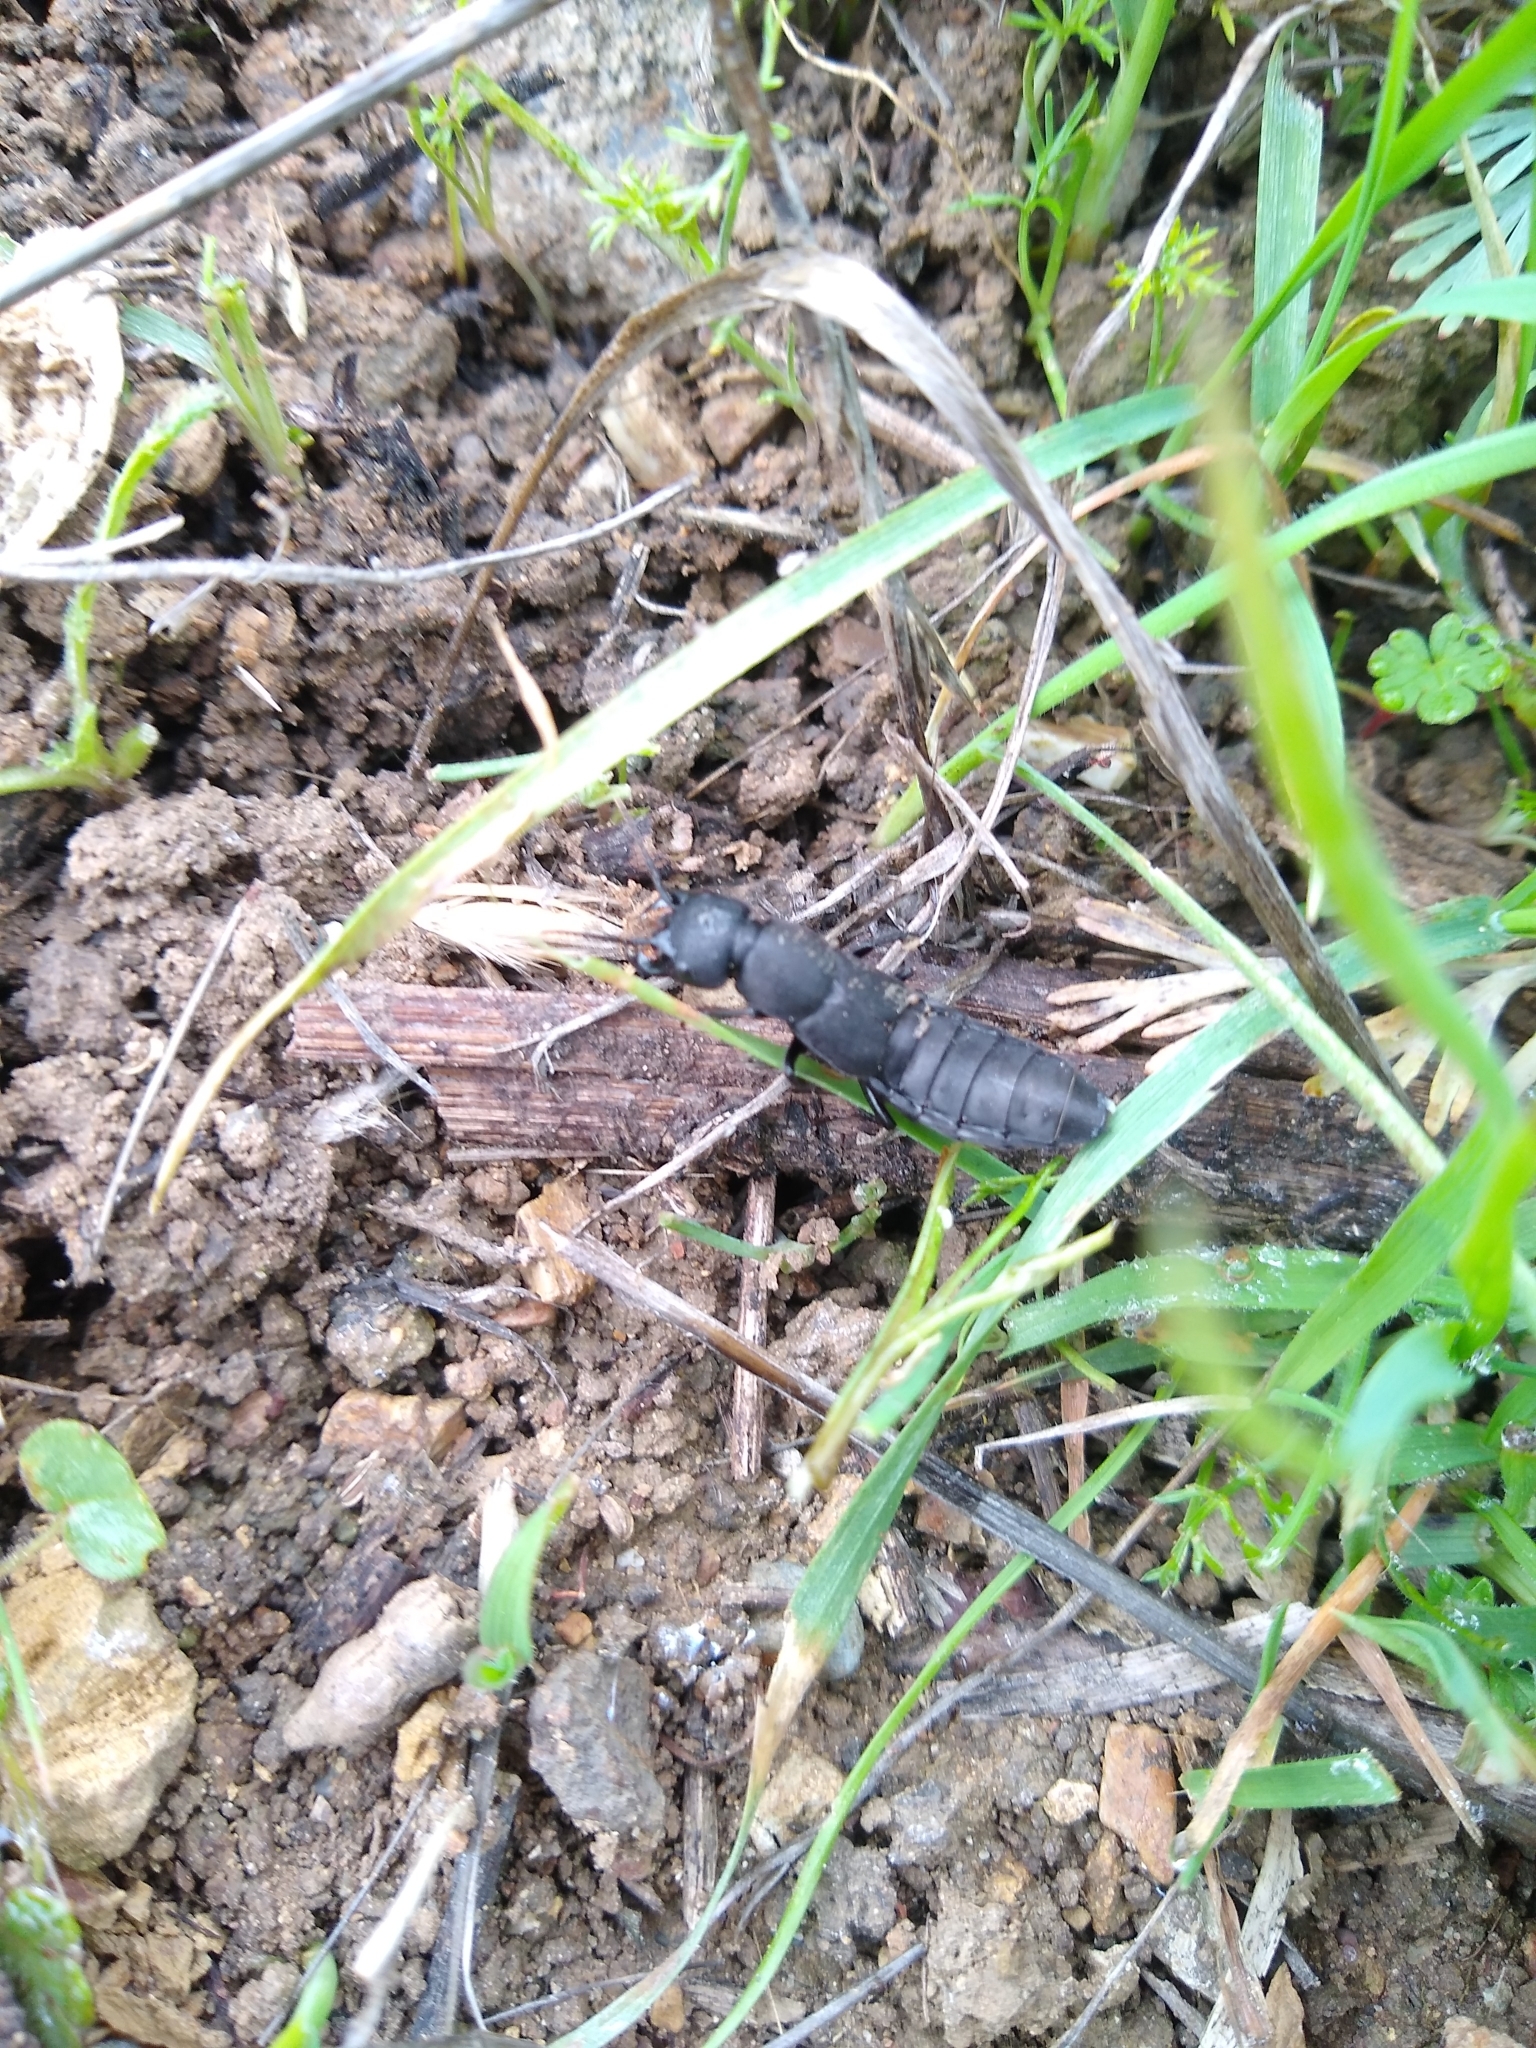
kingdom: Animalia
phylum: Arthropoda
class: Insecta
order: Coleoptera
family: Staphylinidae
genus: Ocypus
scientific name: Ocypus olens
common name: Devil's coach-horse
